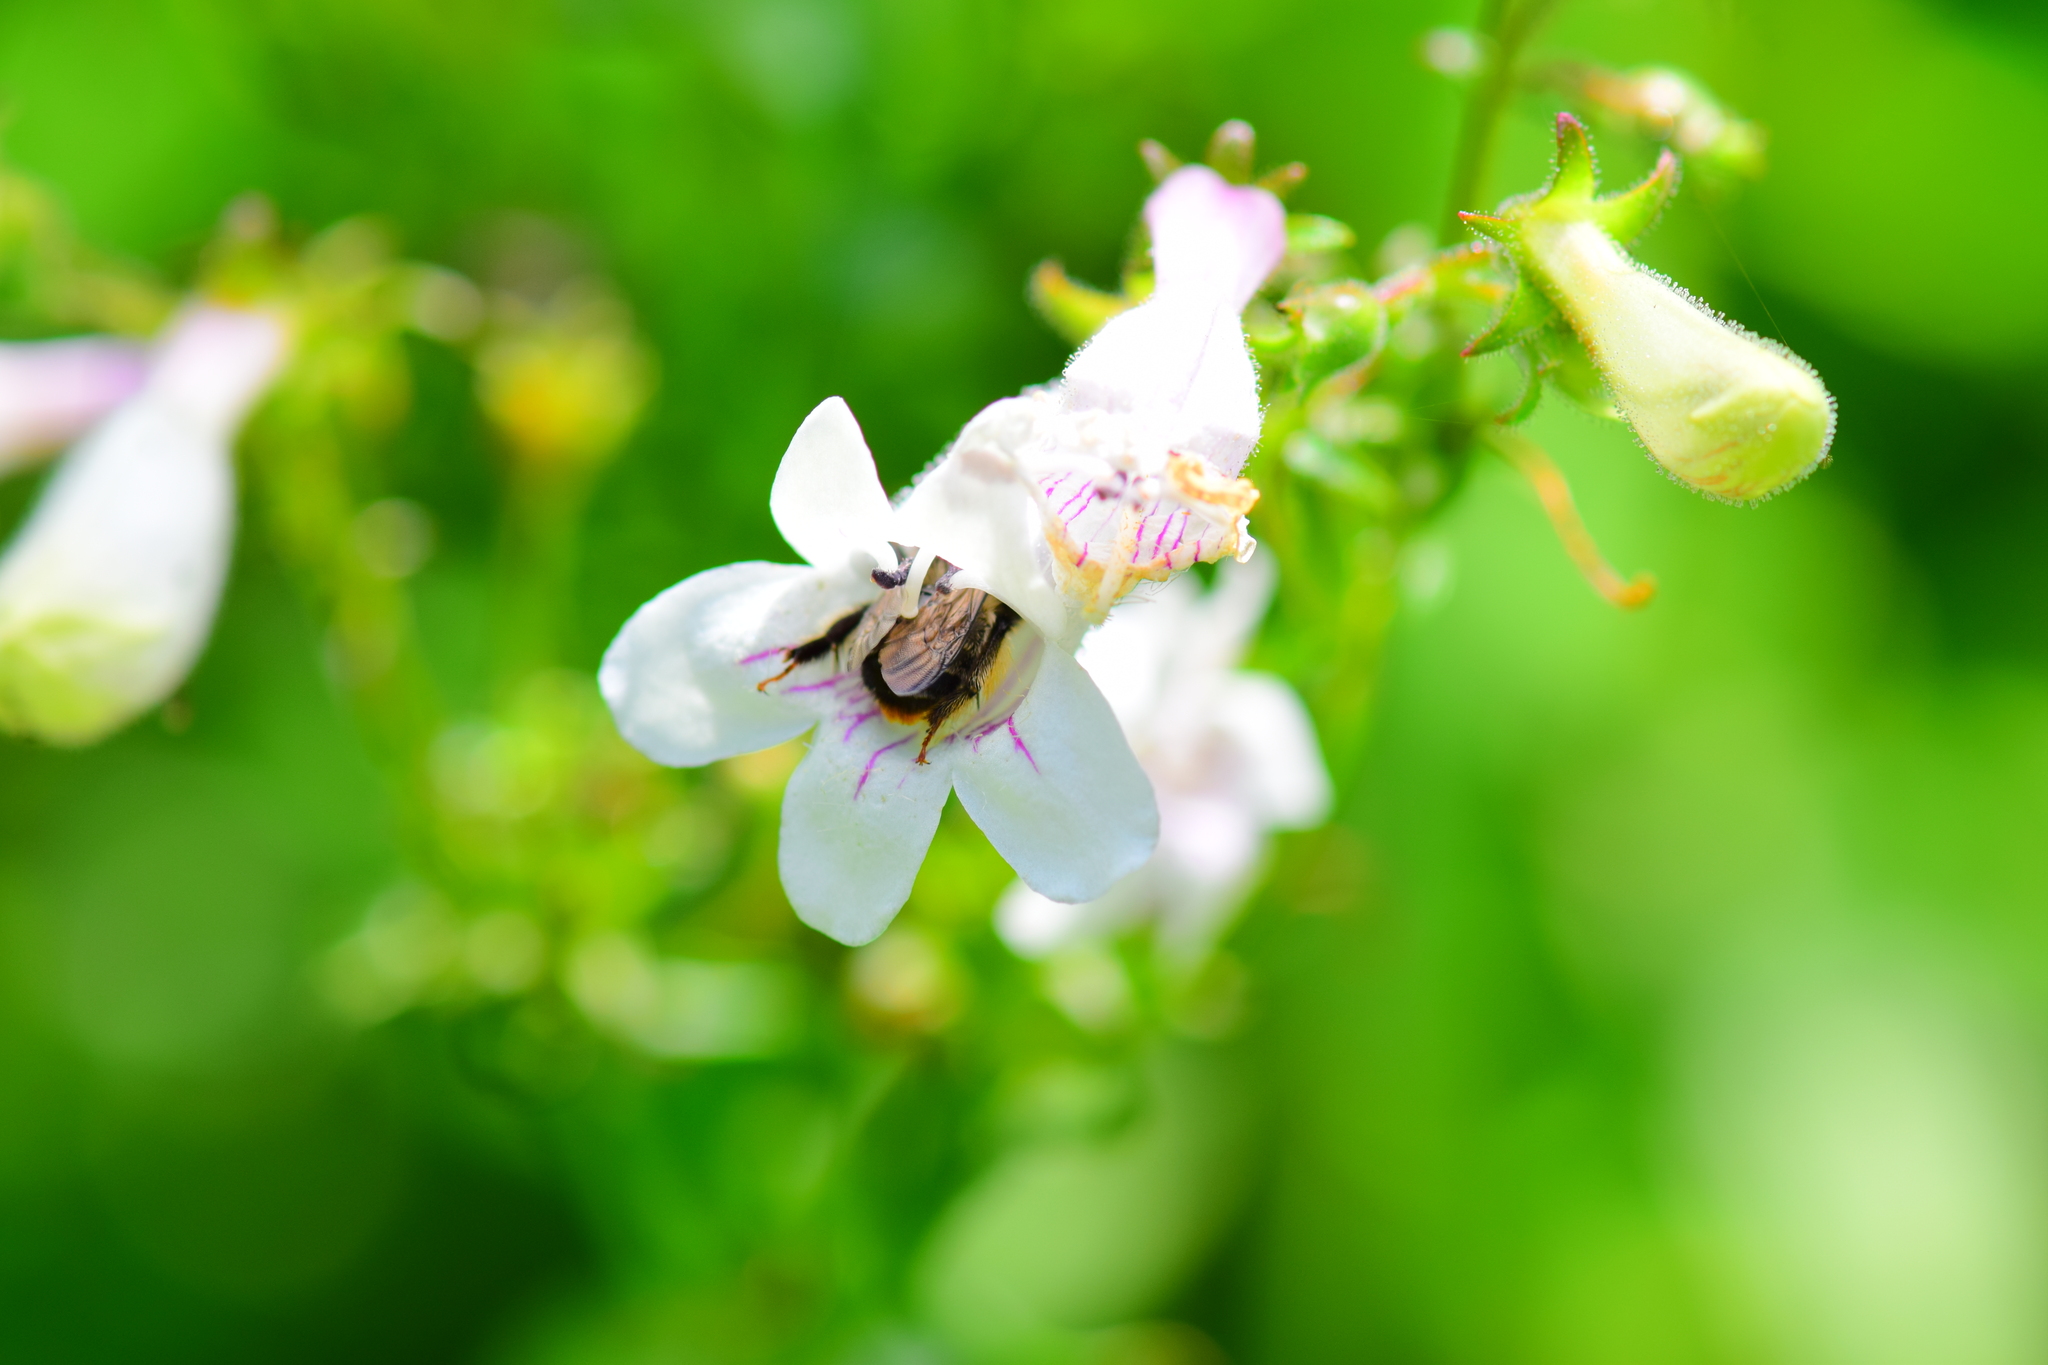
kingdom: Animalia
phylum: Arthropoda
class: Insecta
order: Hymenoptera
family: Apidae
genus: Anthophora
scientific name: Anthophora terminalis
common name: Orange-tipped wood-digger bee
